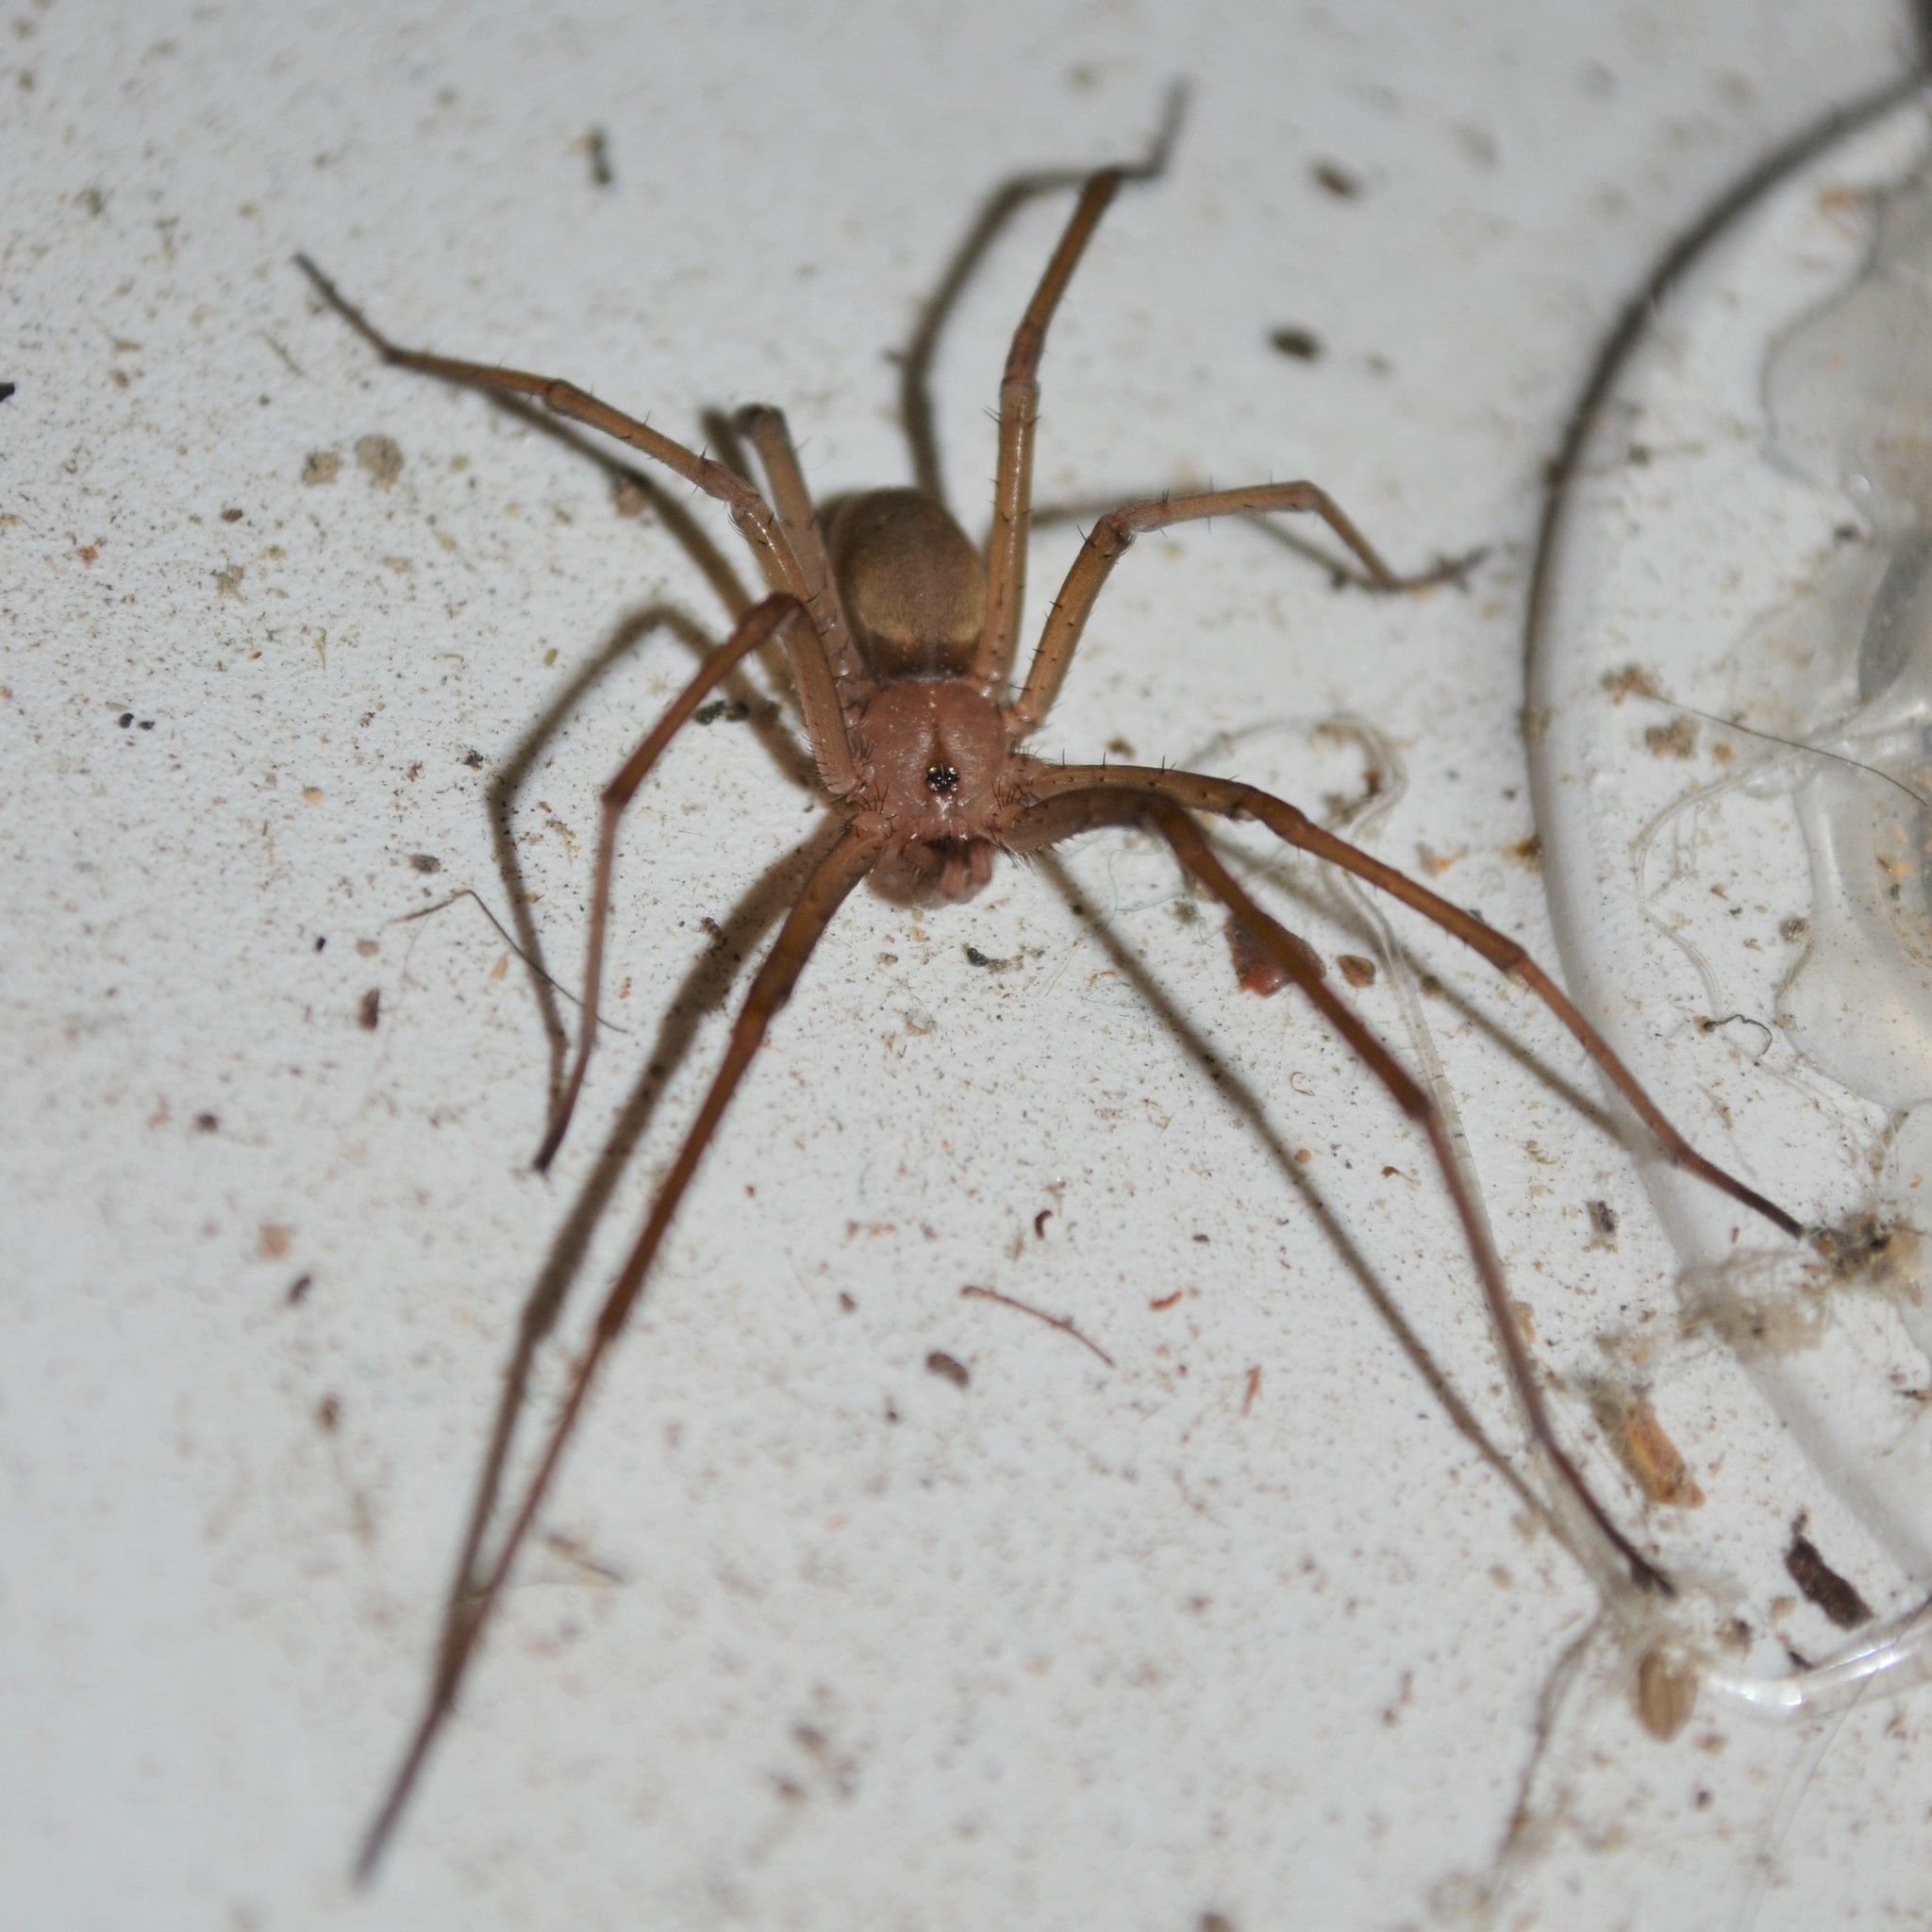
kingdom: Animalia
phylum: Arthropoda
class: Arachnida
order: Araneae
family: Filistatidae
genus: Kukulcania
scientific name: Kukulcania hibernalis
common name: Crevice weaver
